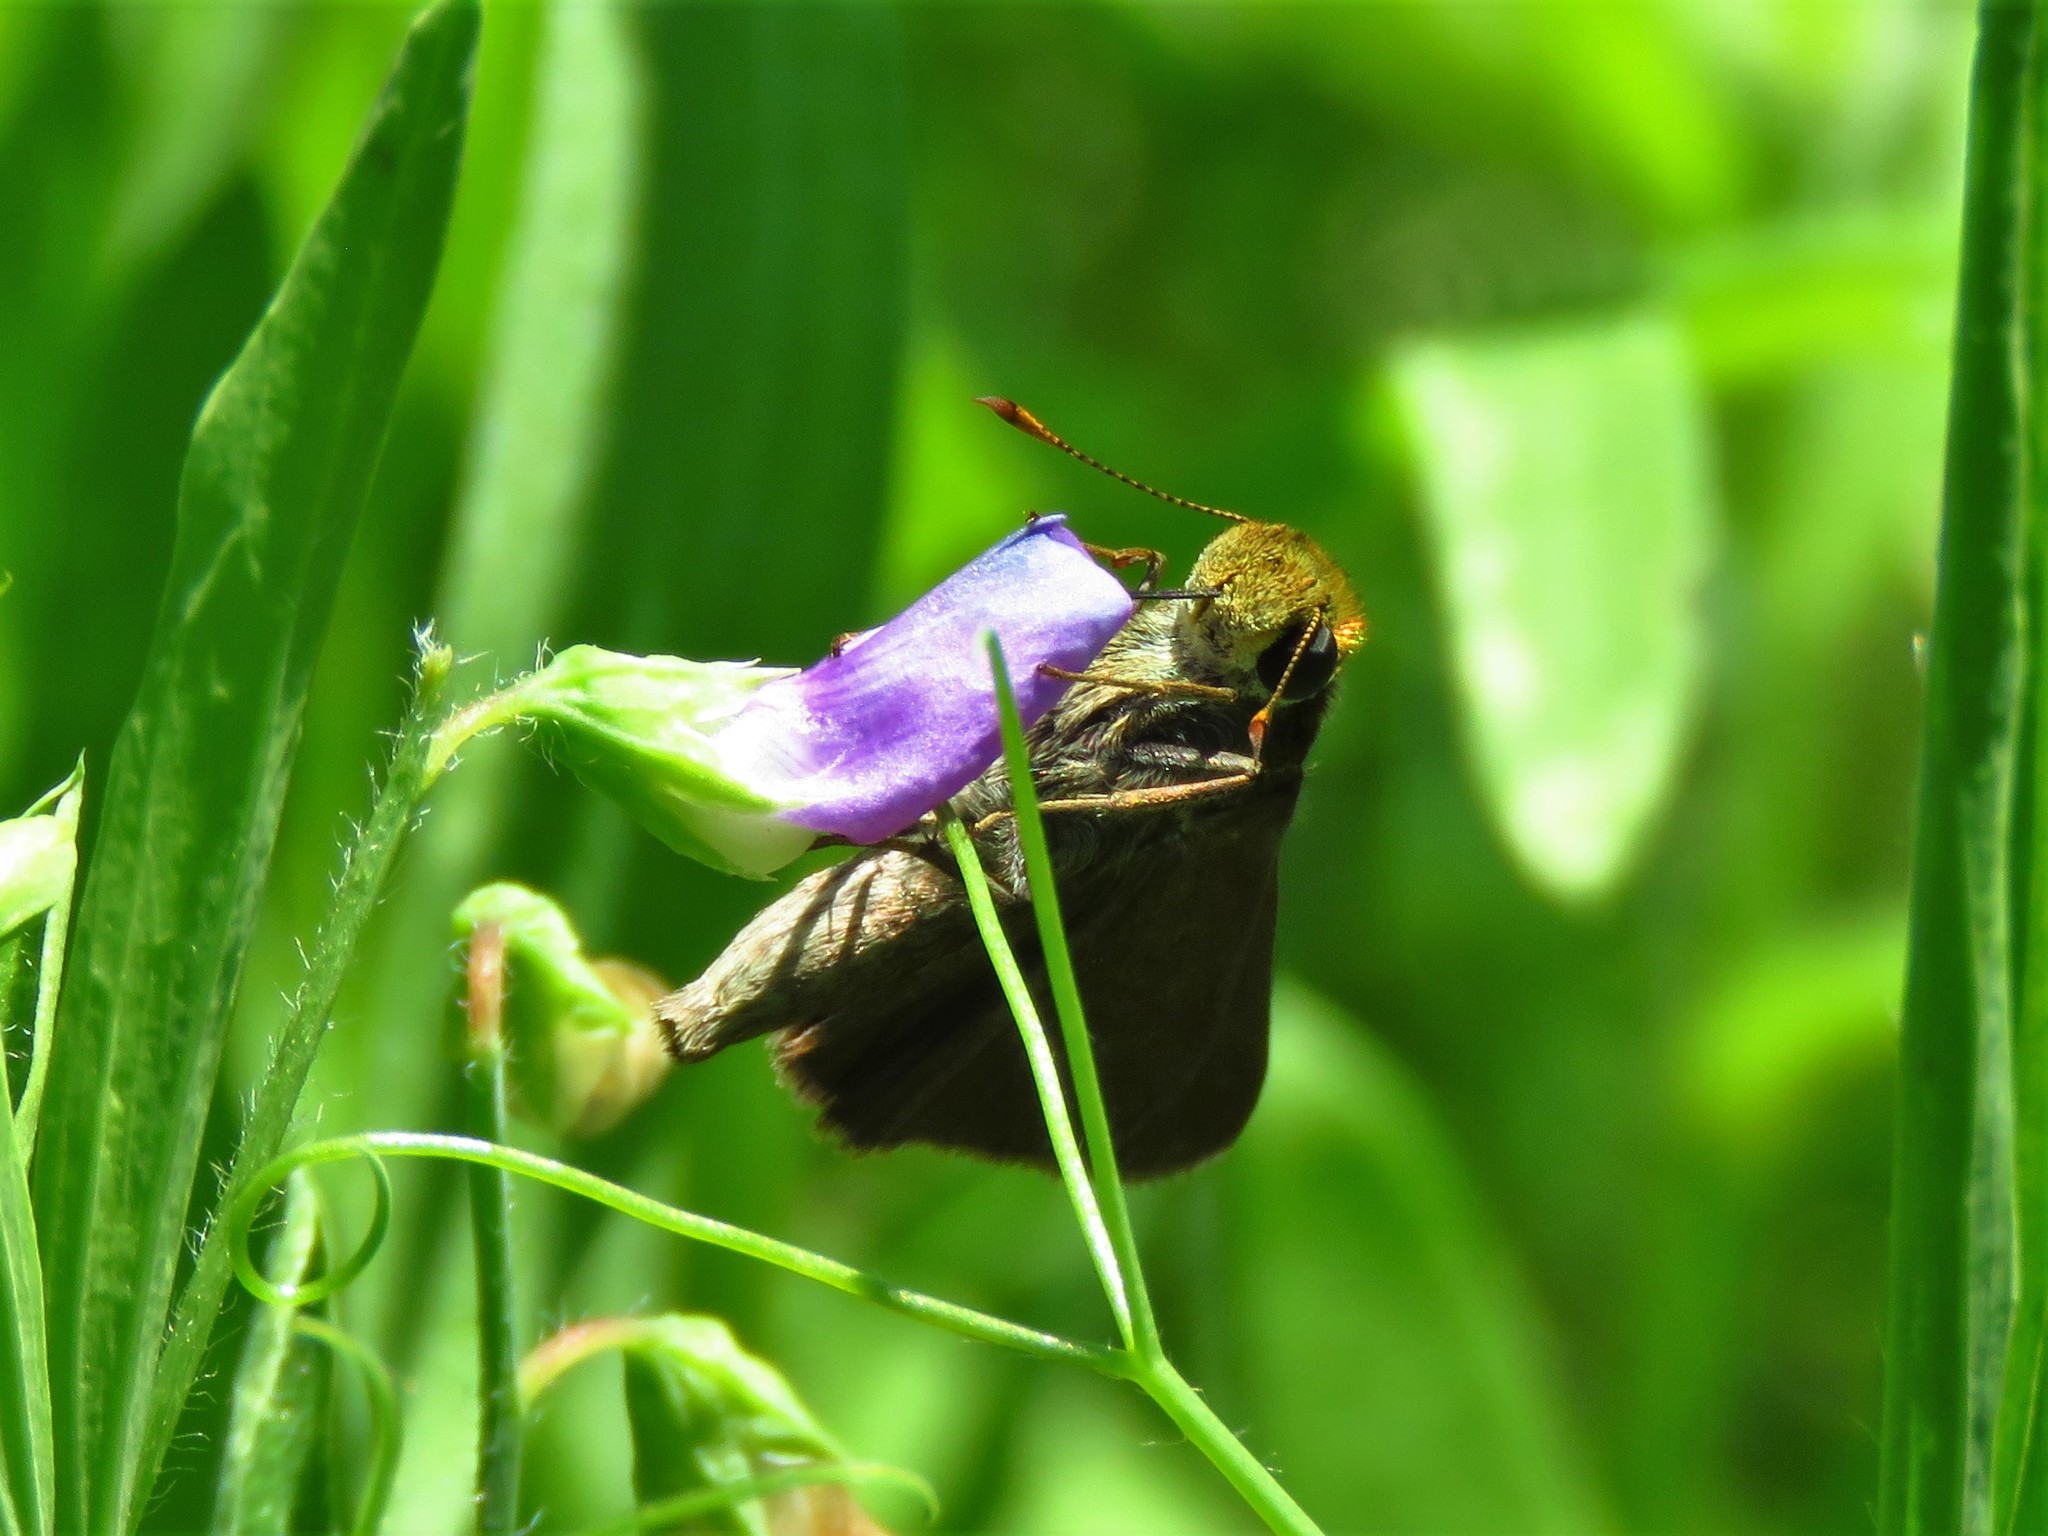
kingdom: Animalia
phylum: Arthropoda
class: Insecta
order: Lepidoptera
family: Hesperiidae
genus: Euphyes
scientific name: Euphyes vestris
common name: Dun skipper
